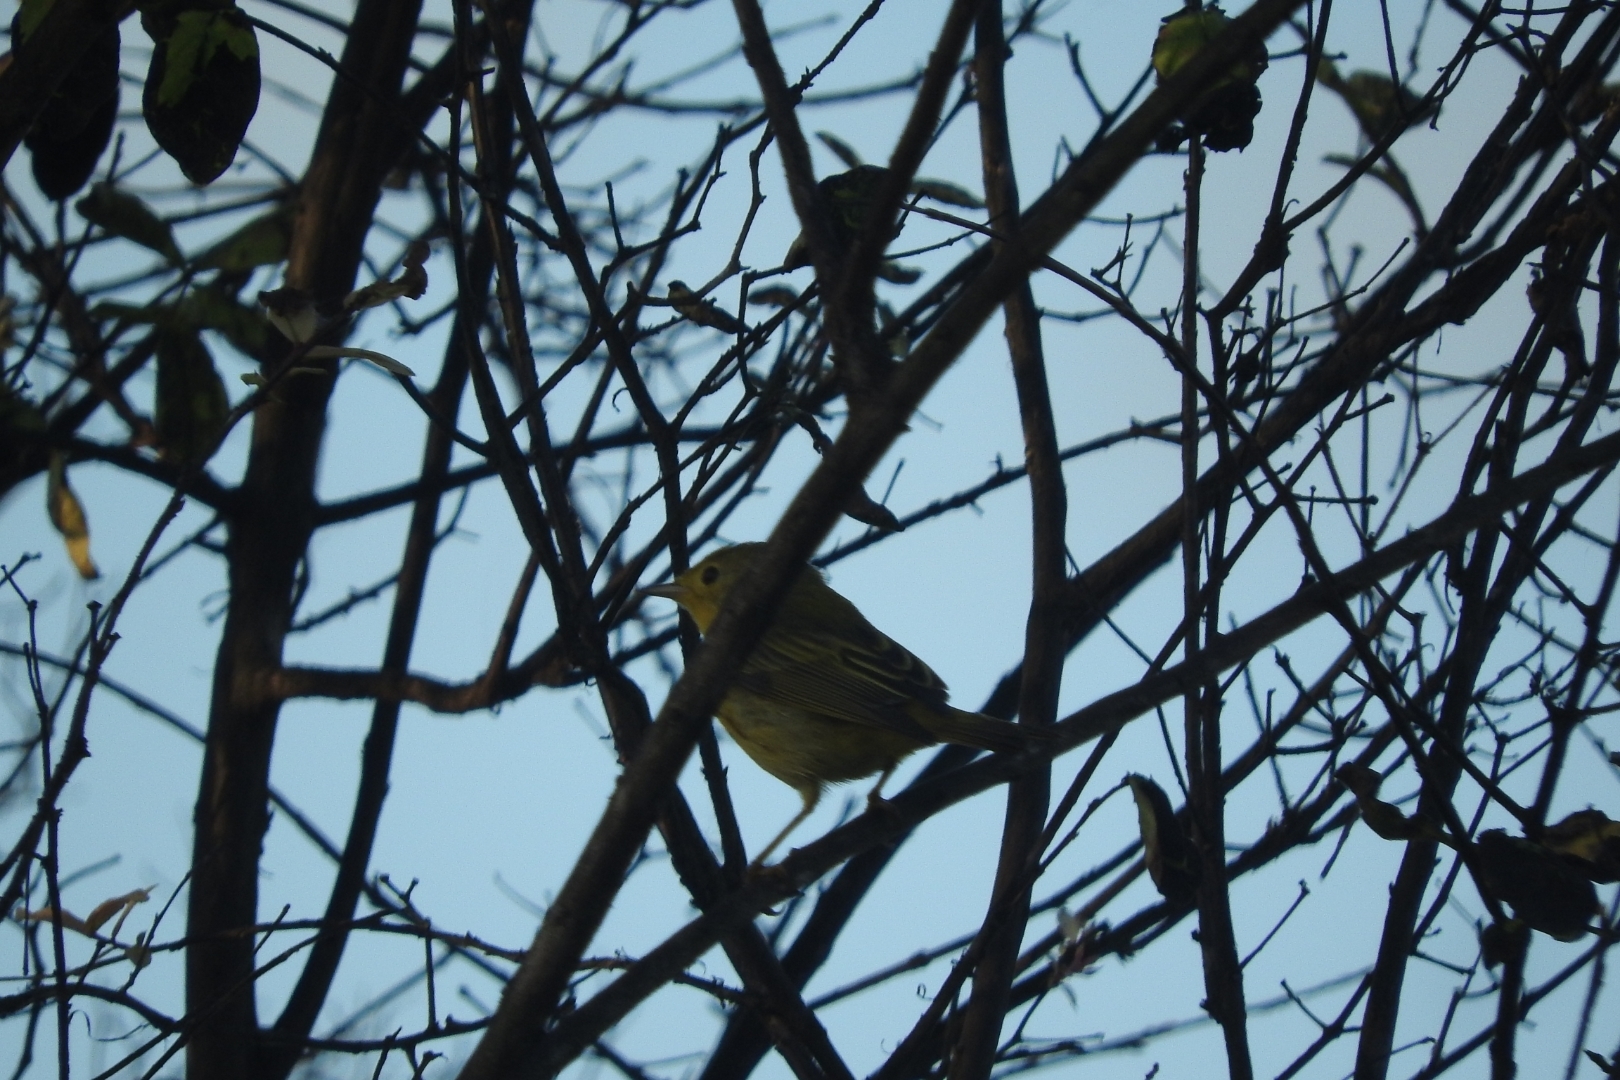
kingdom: Animalia
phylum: Chordata
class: Aves
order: Passeriformes
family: Parulidae
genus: Setophaga
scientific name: Setophaga petechia
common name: Yellow warbler
